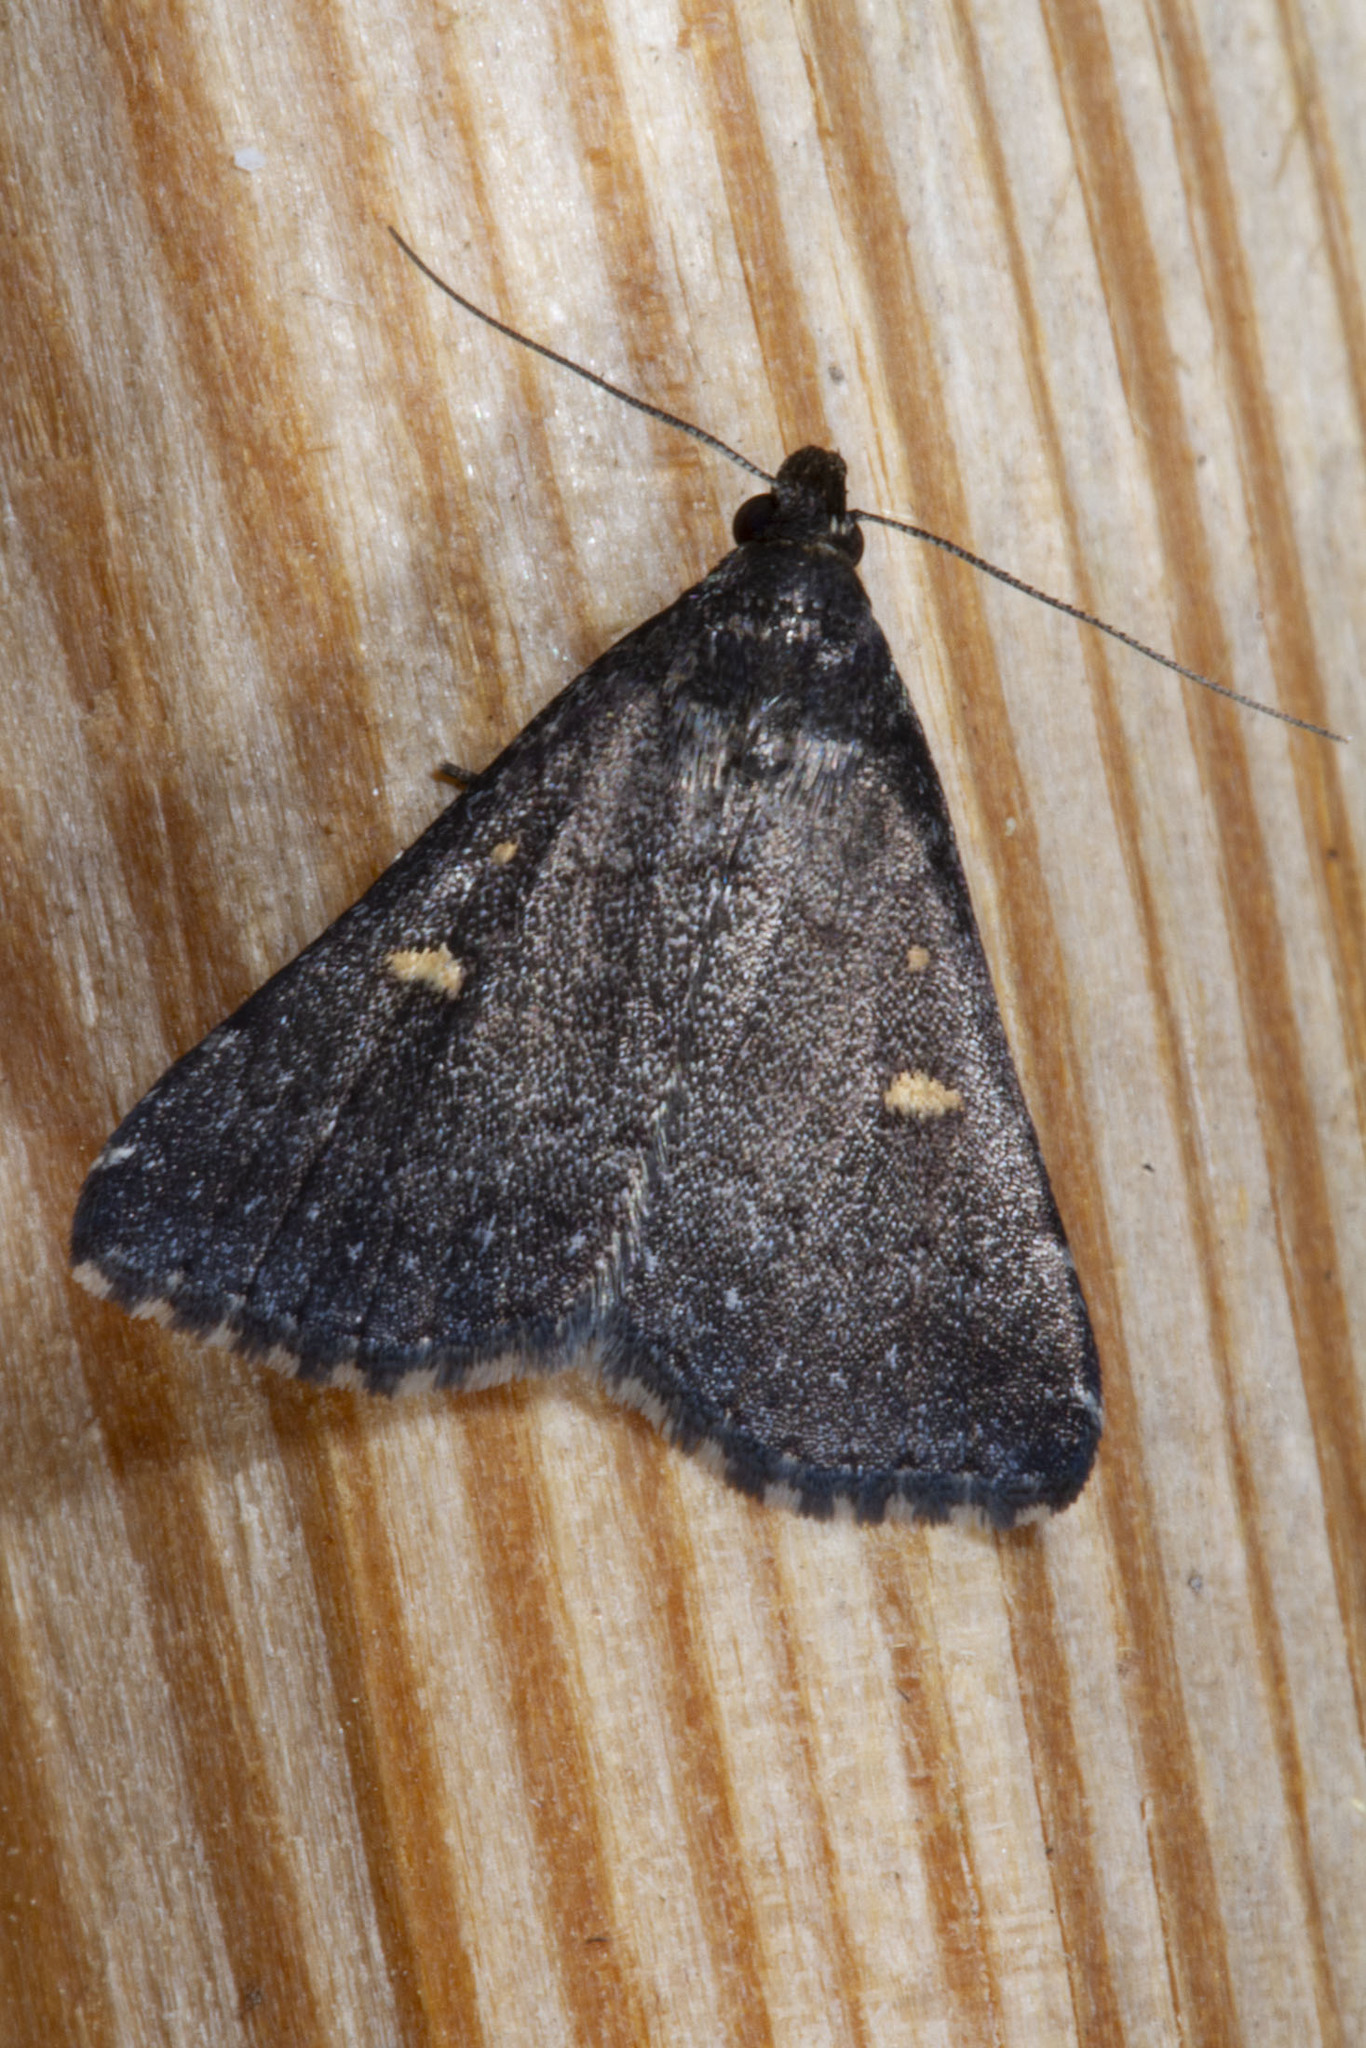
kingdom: Animalia
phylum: Arthropoda
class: Insecta
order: Lepidoptera
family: Erebidae
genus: Tetanolita
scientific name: Tetanolita mynesalis
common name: Smoky tetanolita moth
